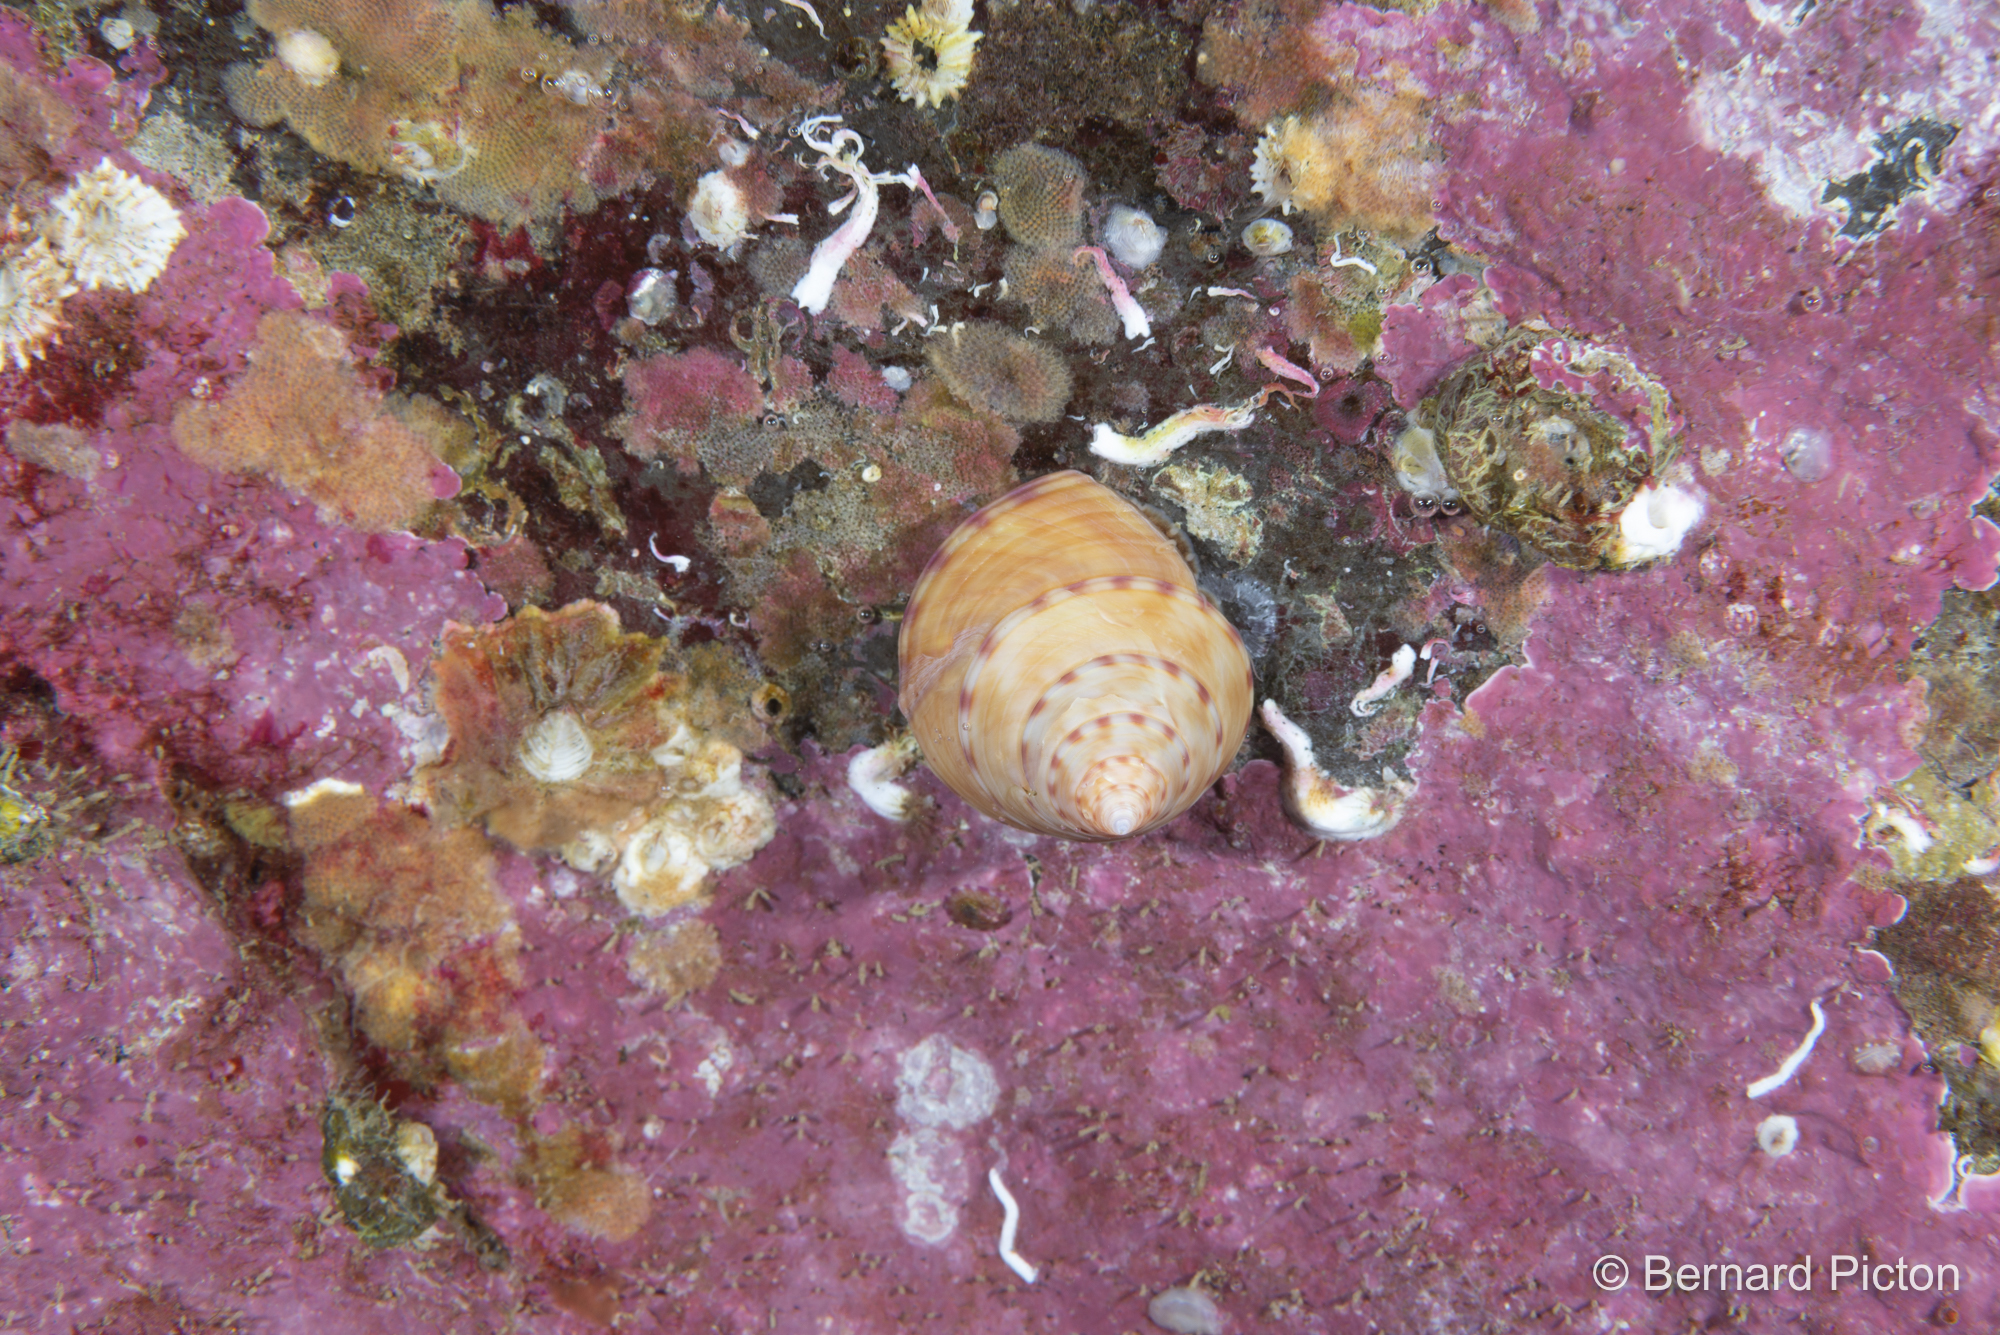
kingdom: Animalia
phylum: Mollusca
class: Gastropoda
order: Trochida
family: Calliostomatidae
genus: Calliostoma
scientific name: Calliostoma zizyphinum
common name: Painted top shell
